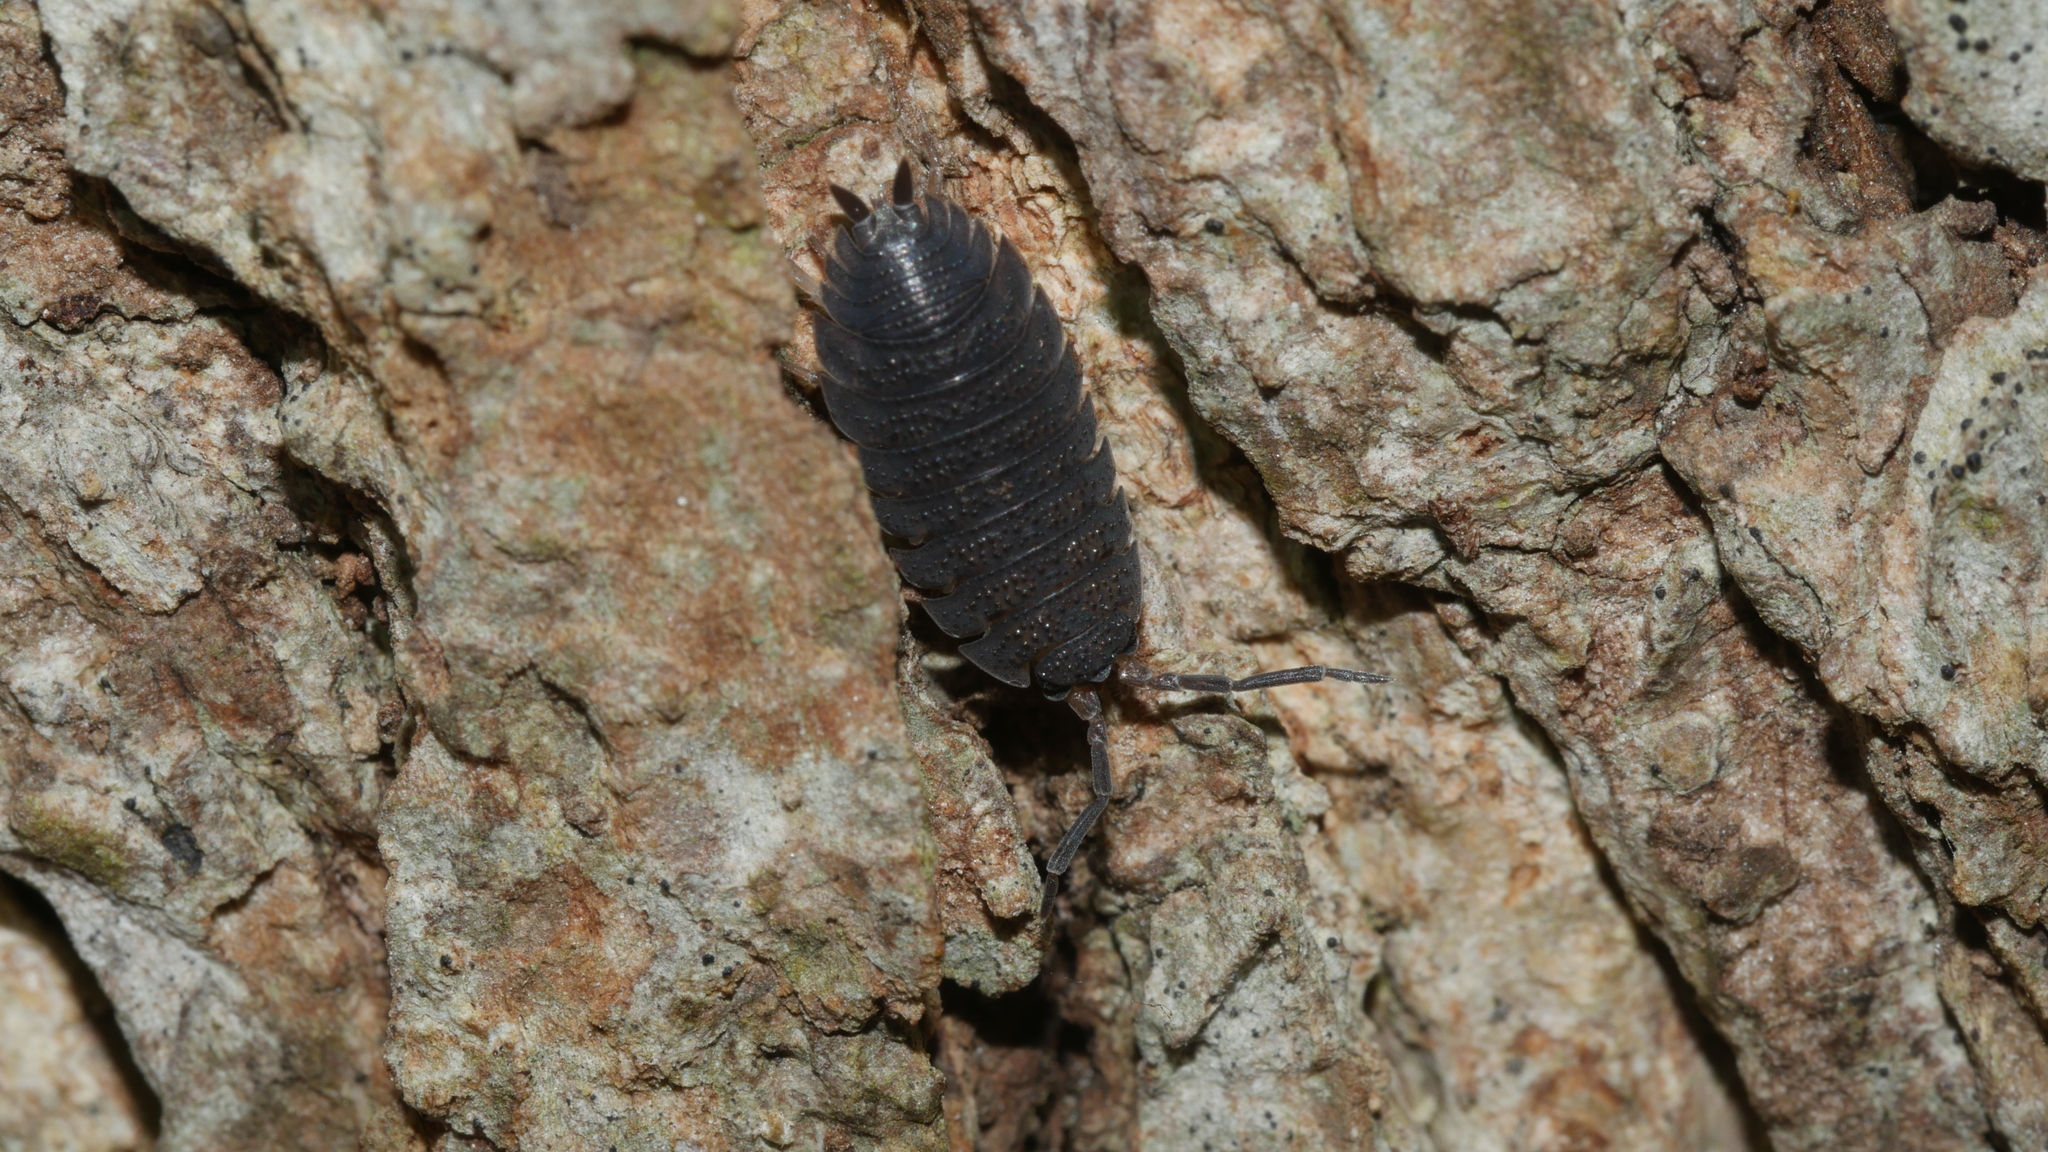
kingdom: Animalia
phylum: Arthropoda
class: Malacostraca
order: Isopoda
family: Porcellionidae
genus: Porcellio
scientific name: Porcellio scaber
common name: Common rough woodlouse
